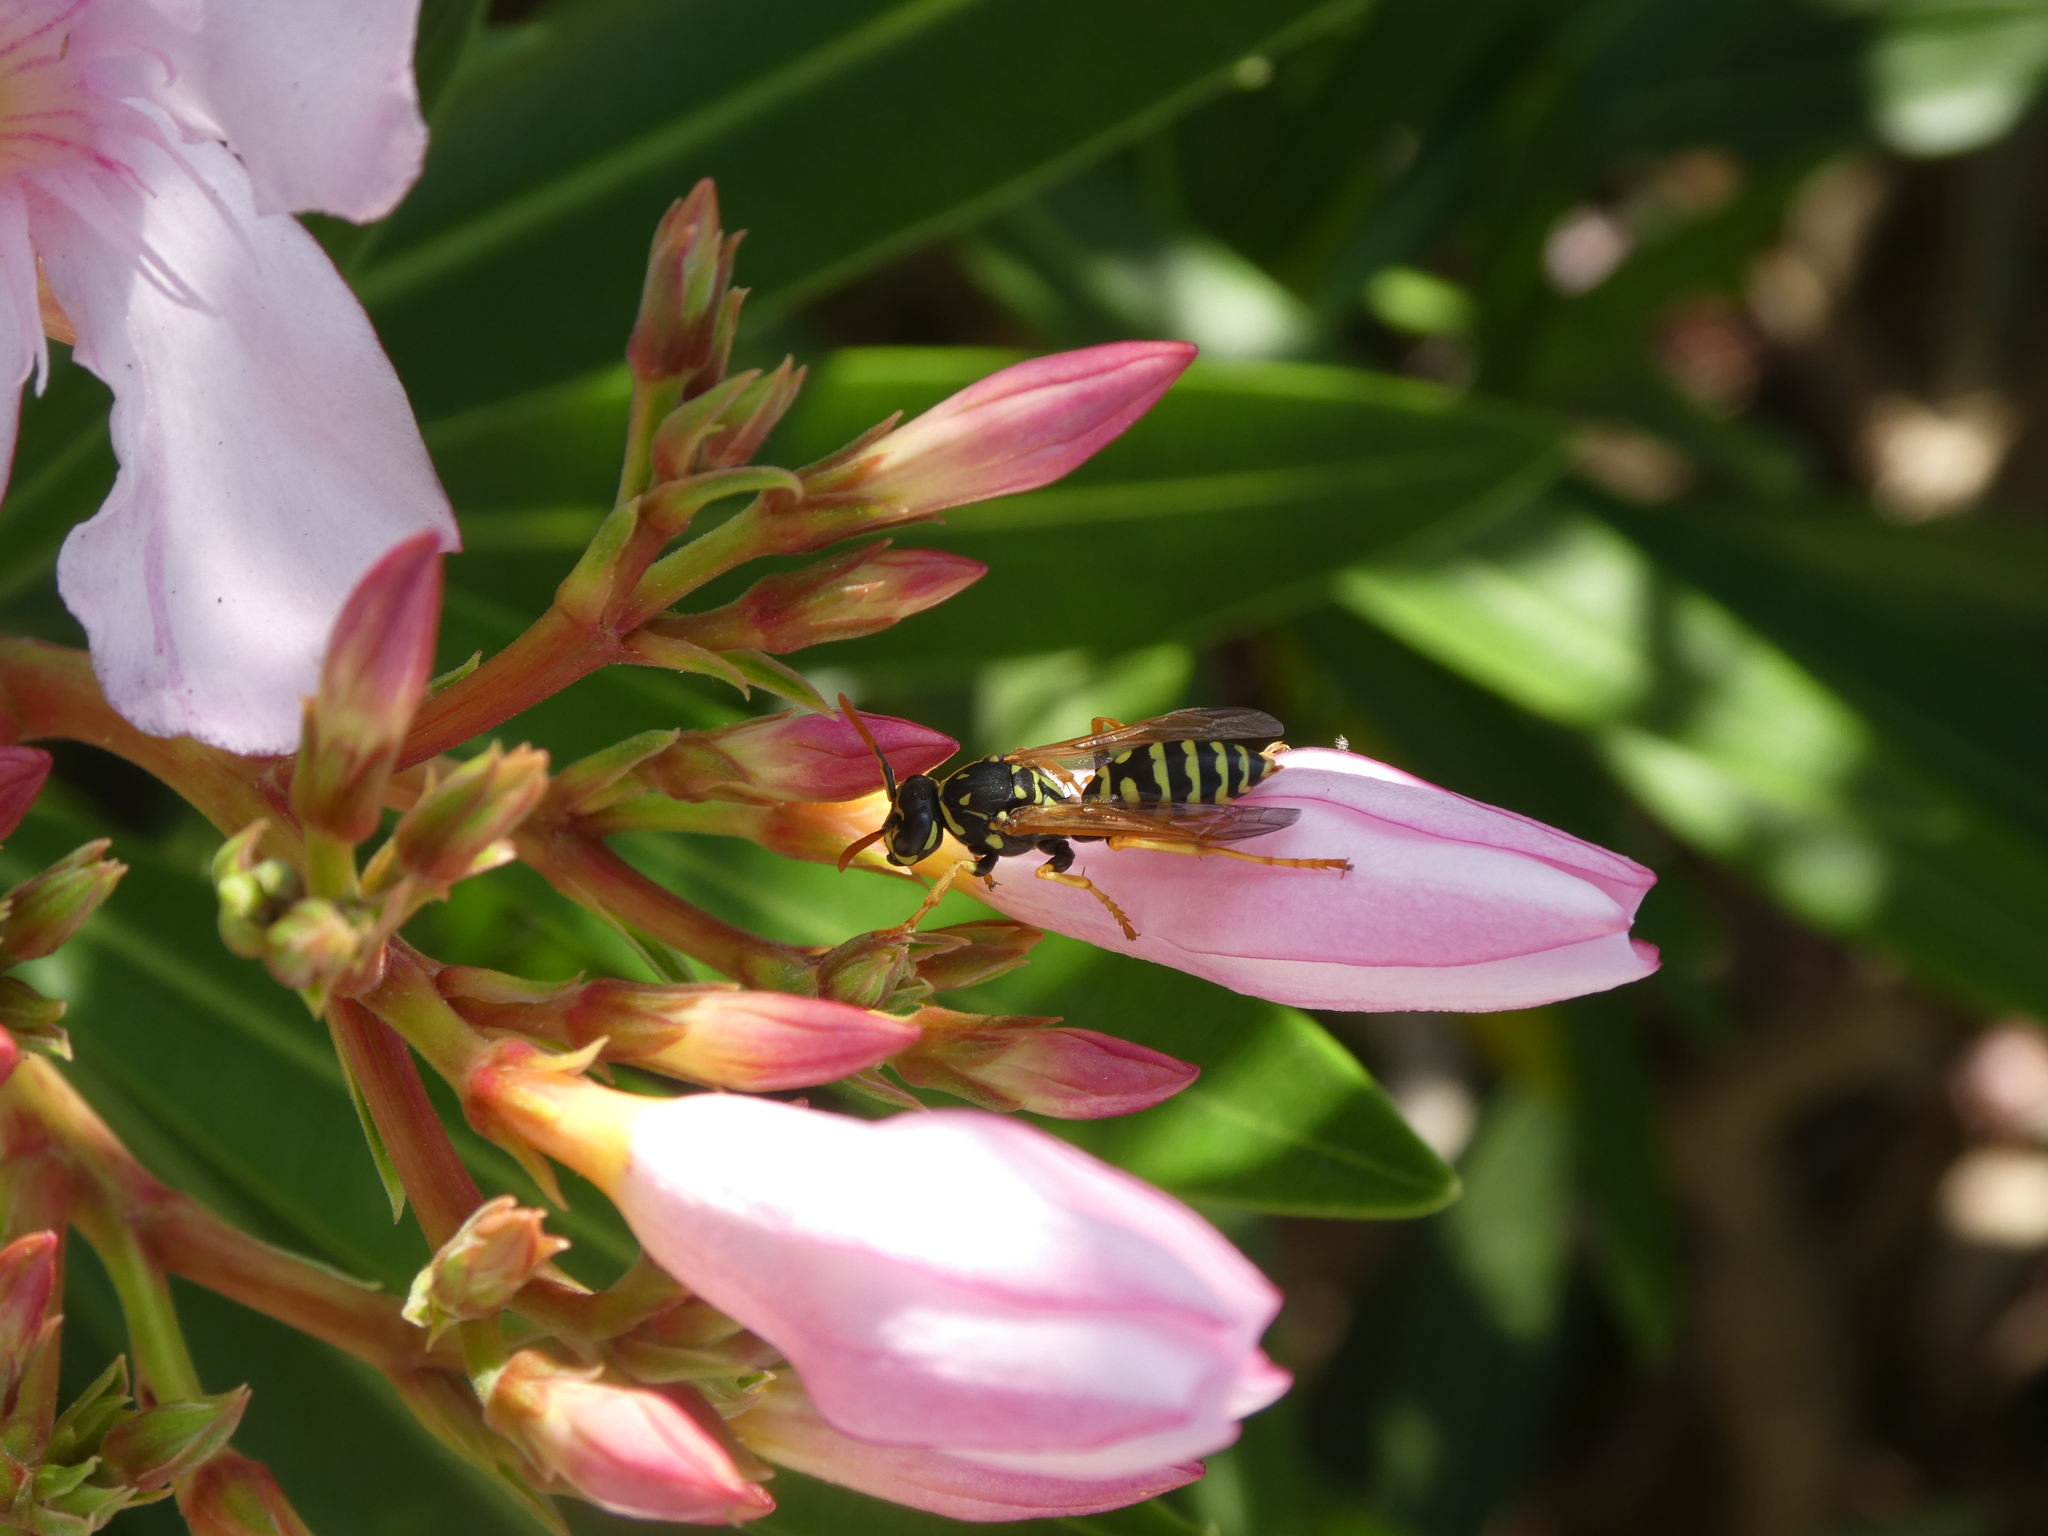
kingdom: Animalia
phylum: Arthropoda
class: Insecta
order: Hymenoptera
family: Eumenidae
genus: Polistes
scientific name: Polistes dominula
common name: Paper wasp
